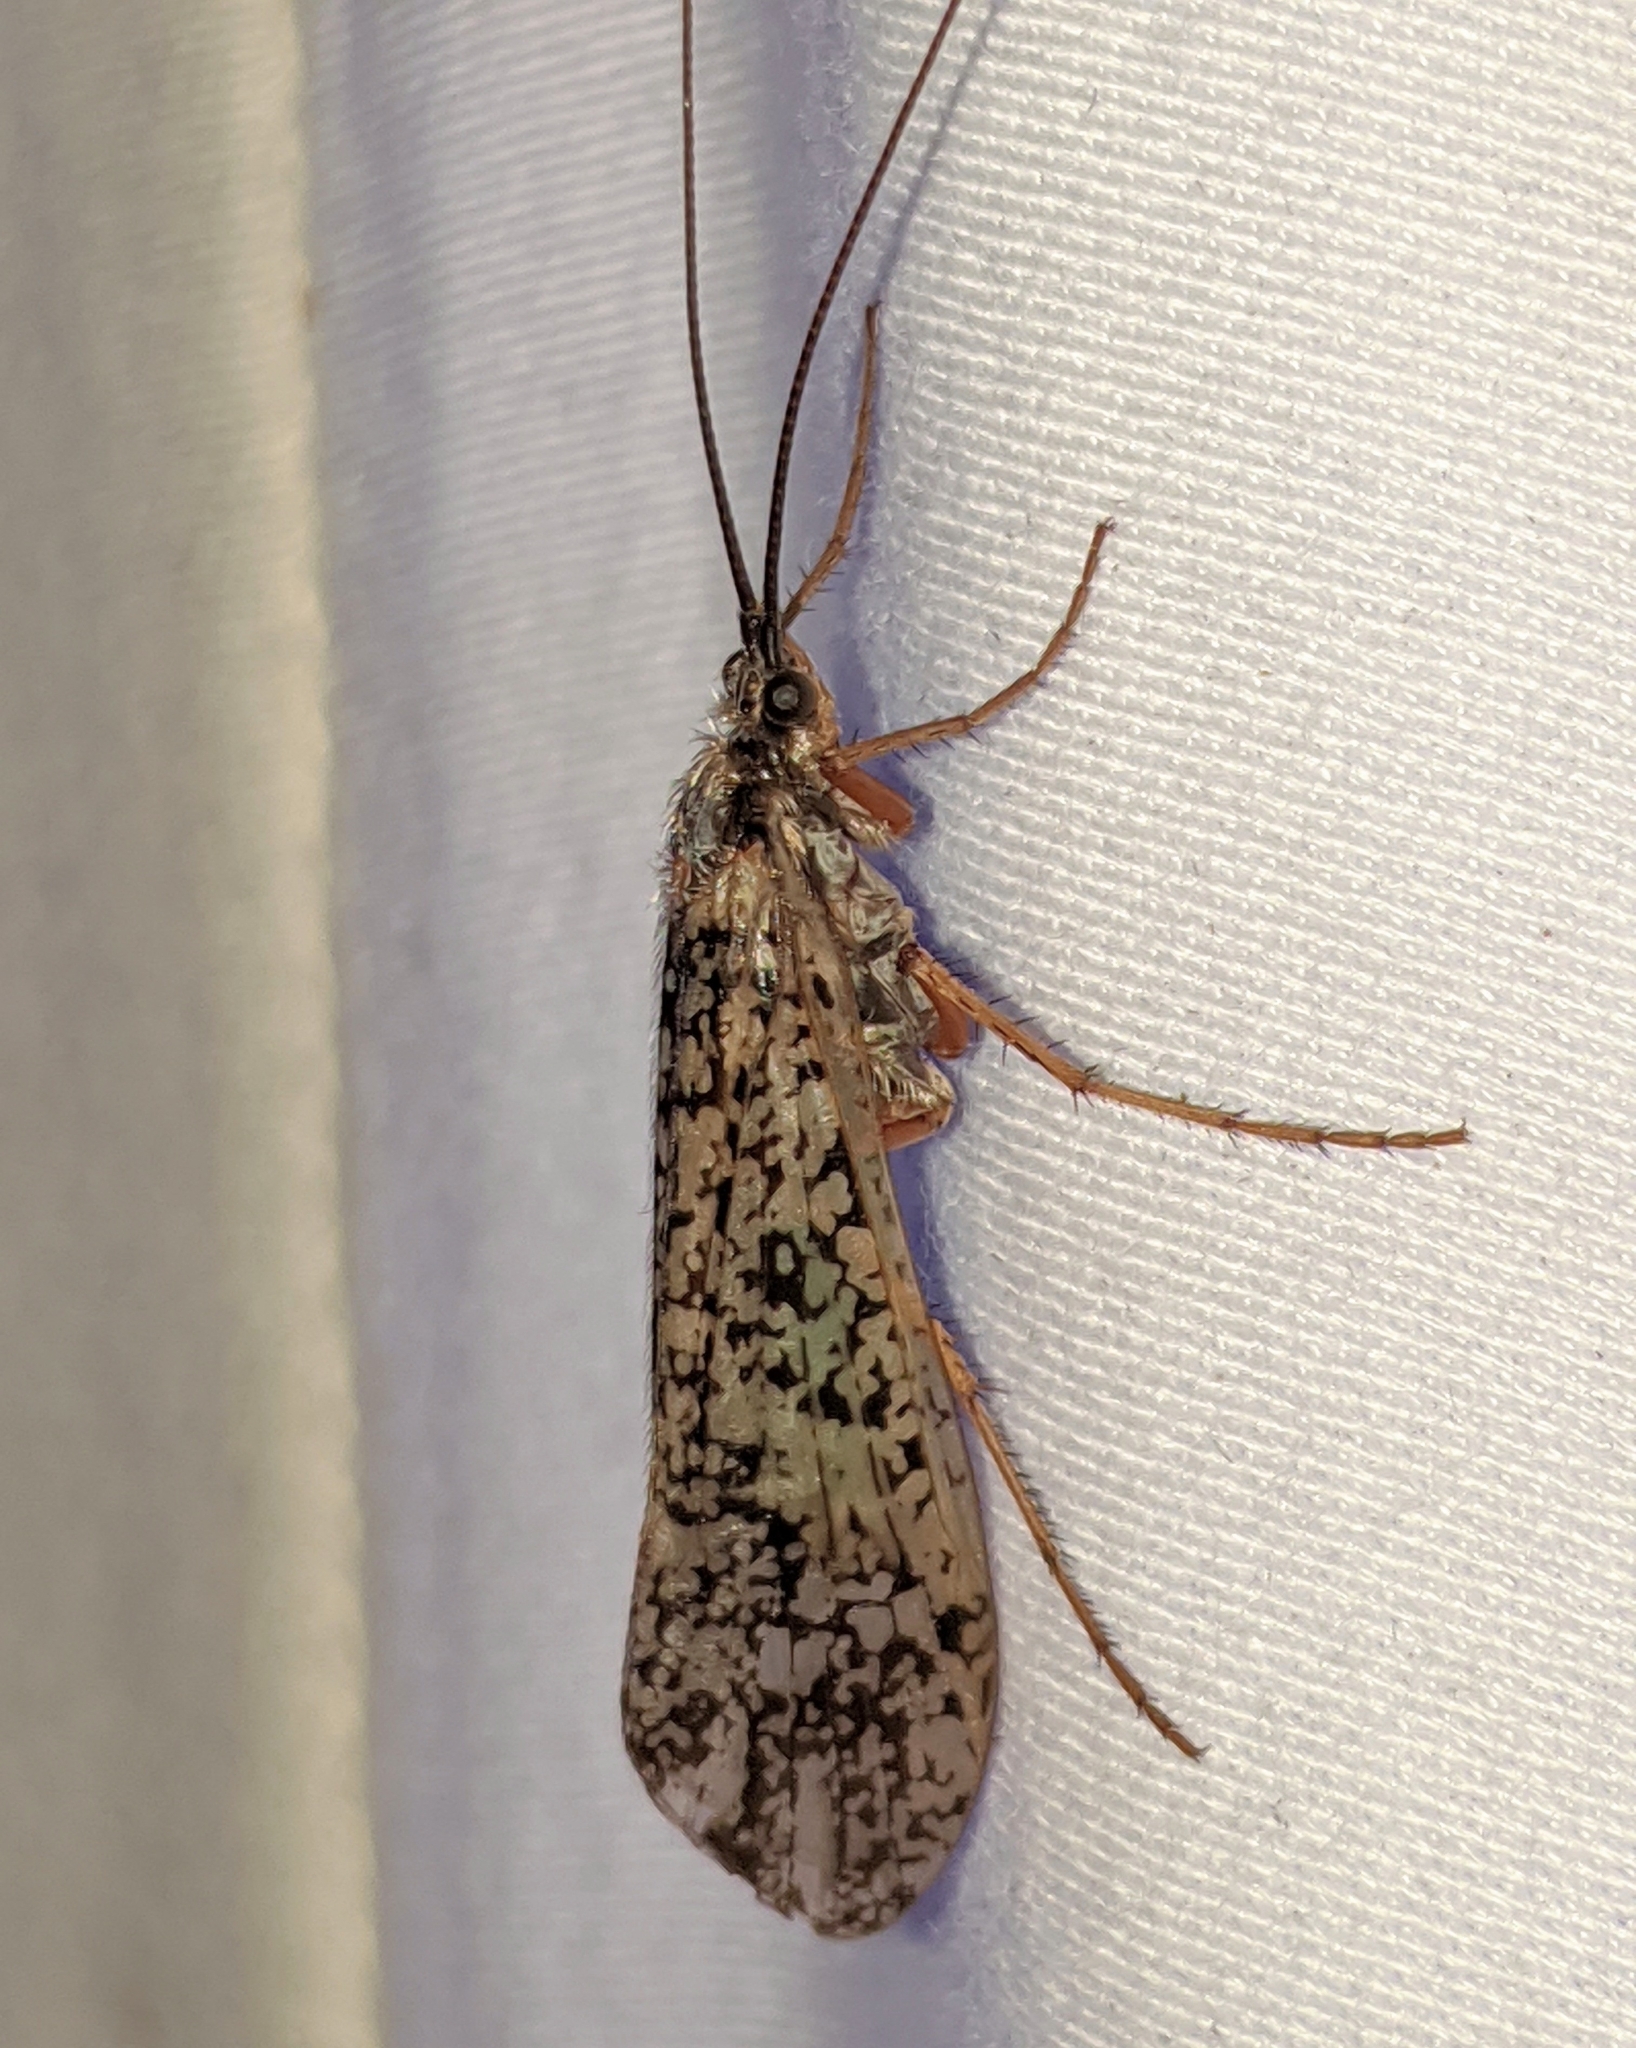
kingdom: Animalia
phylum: Arthropoda
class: Insecta
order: Trichoptera
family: Limnephilidae
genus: Clistoronia
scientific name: Clistoronia magnifica
